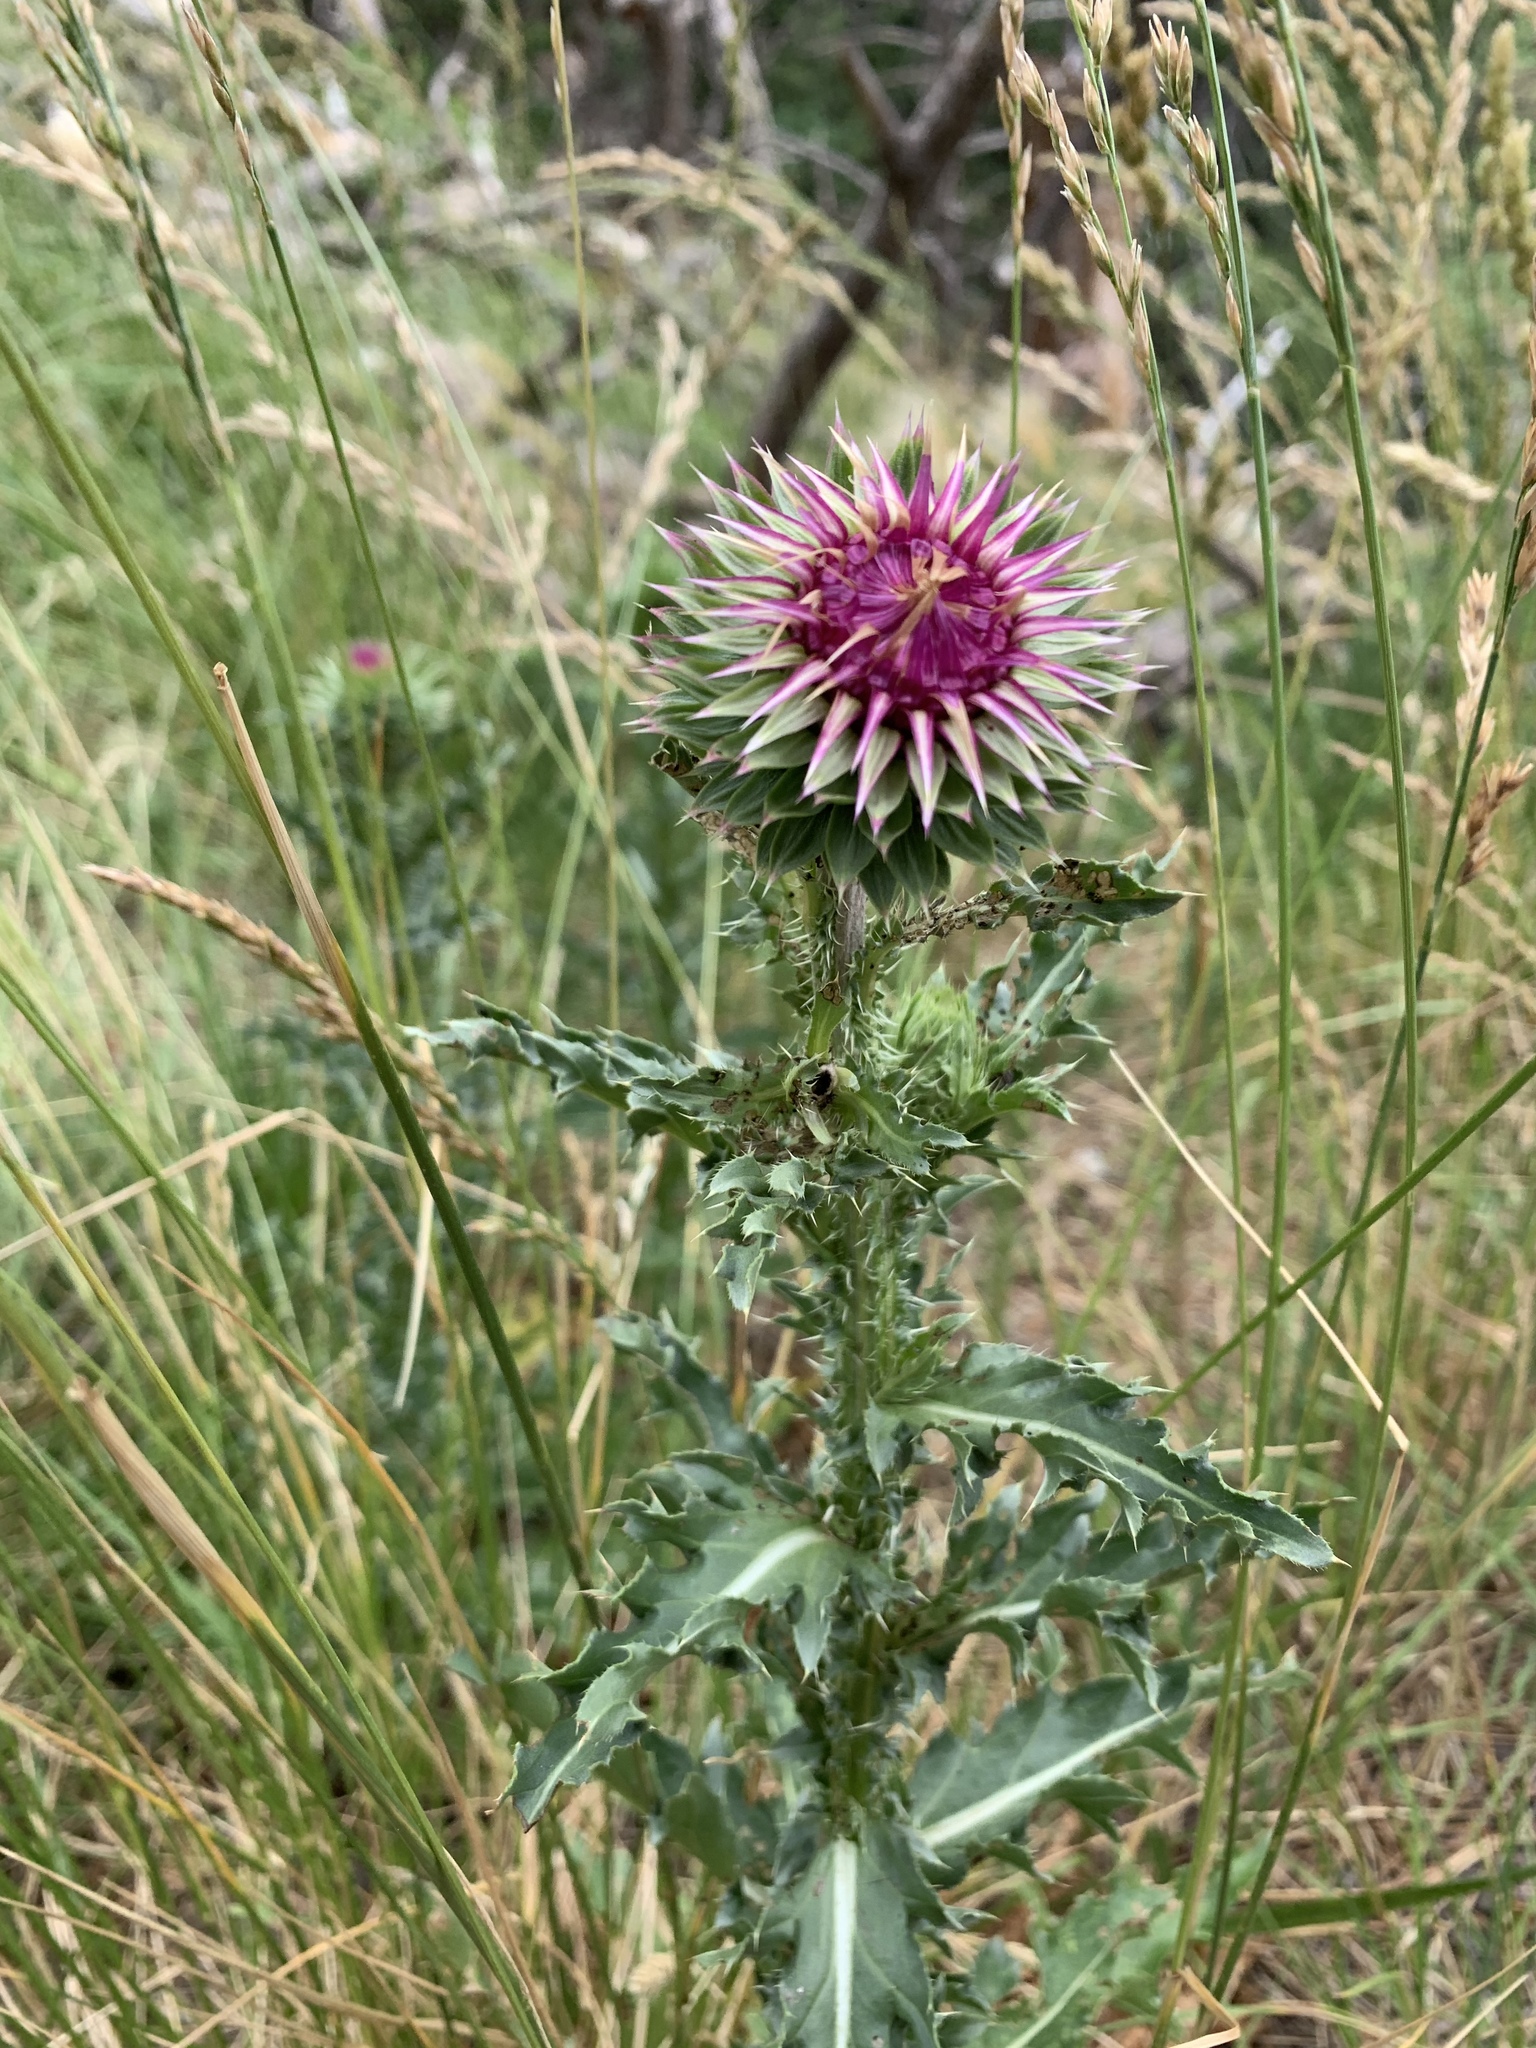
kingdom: Plantae
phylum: Tracheophyta
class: Magnoliopsida
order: Asterales
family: Asteraceae
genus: Carduus
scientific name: Carduus nutans
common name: Musk thistle
